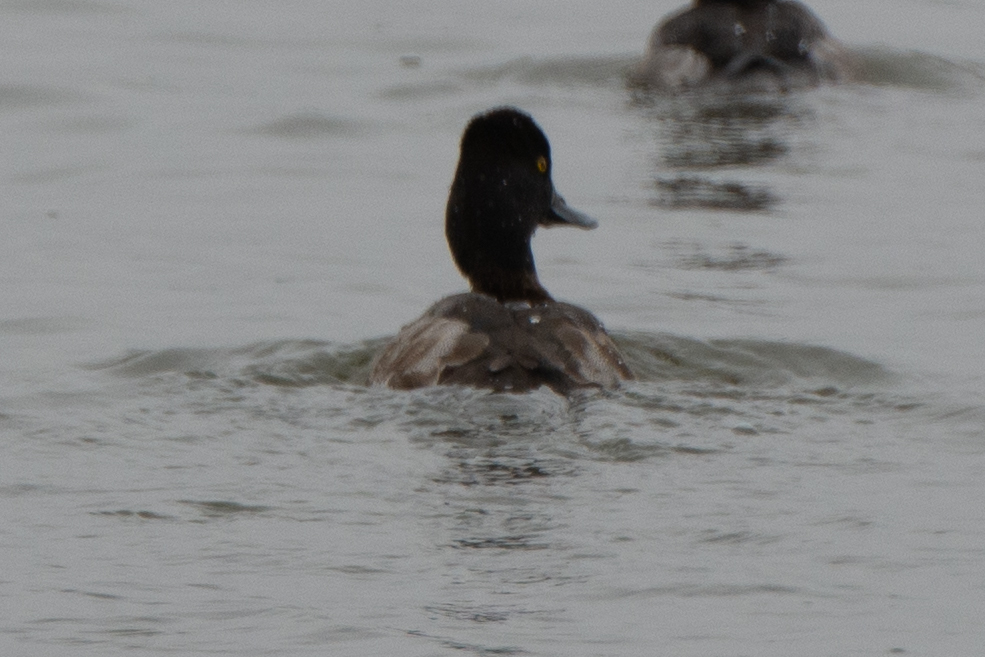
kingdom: Animalia
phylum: Chordata
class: Aves
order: Anseriformes
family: Anatidae
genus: Aythya
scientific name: Aythya affinis
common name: Lesser scaup
